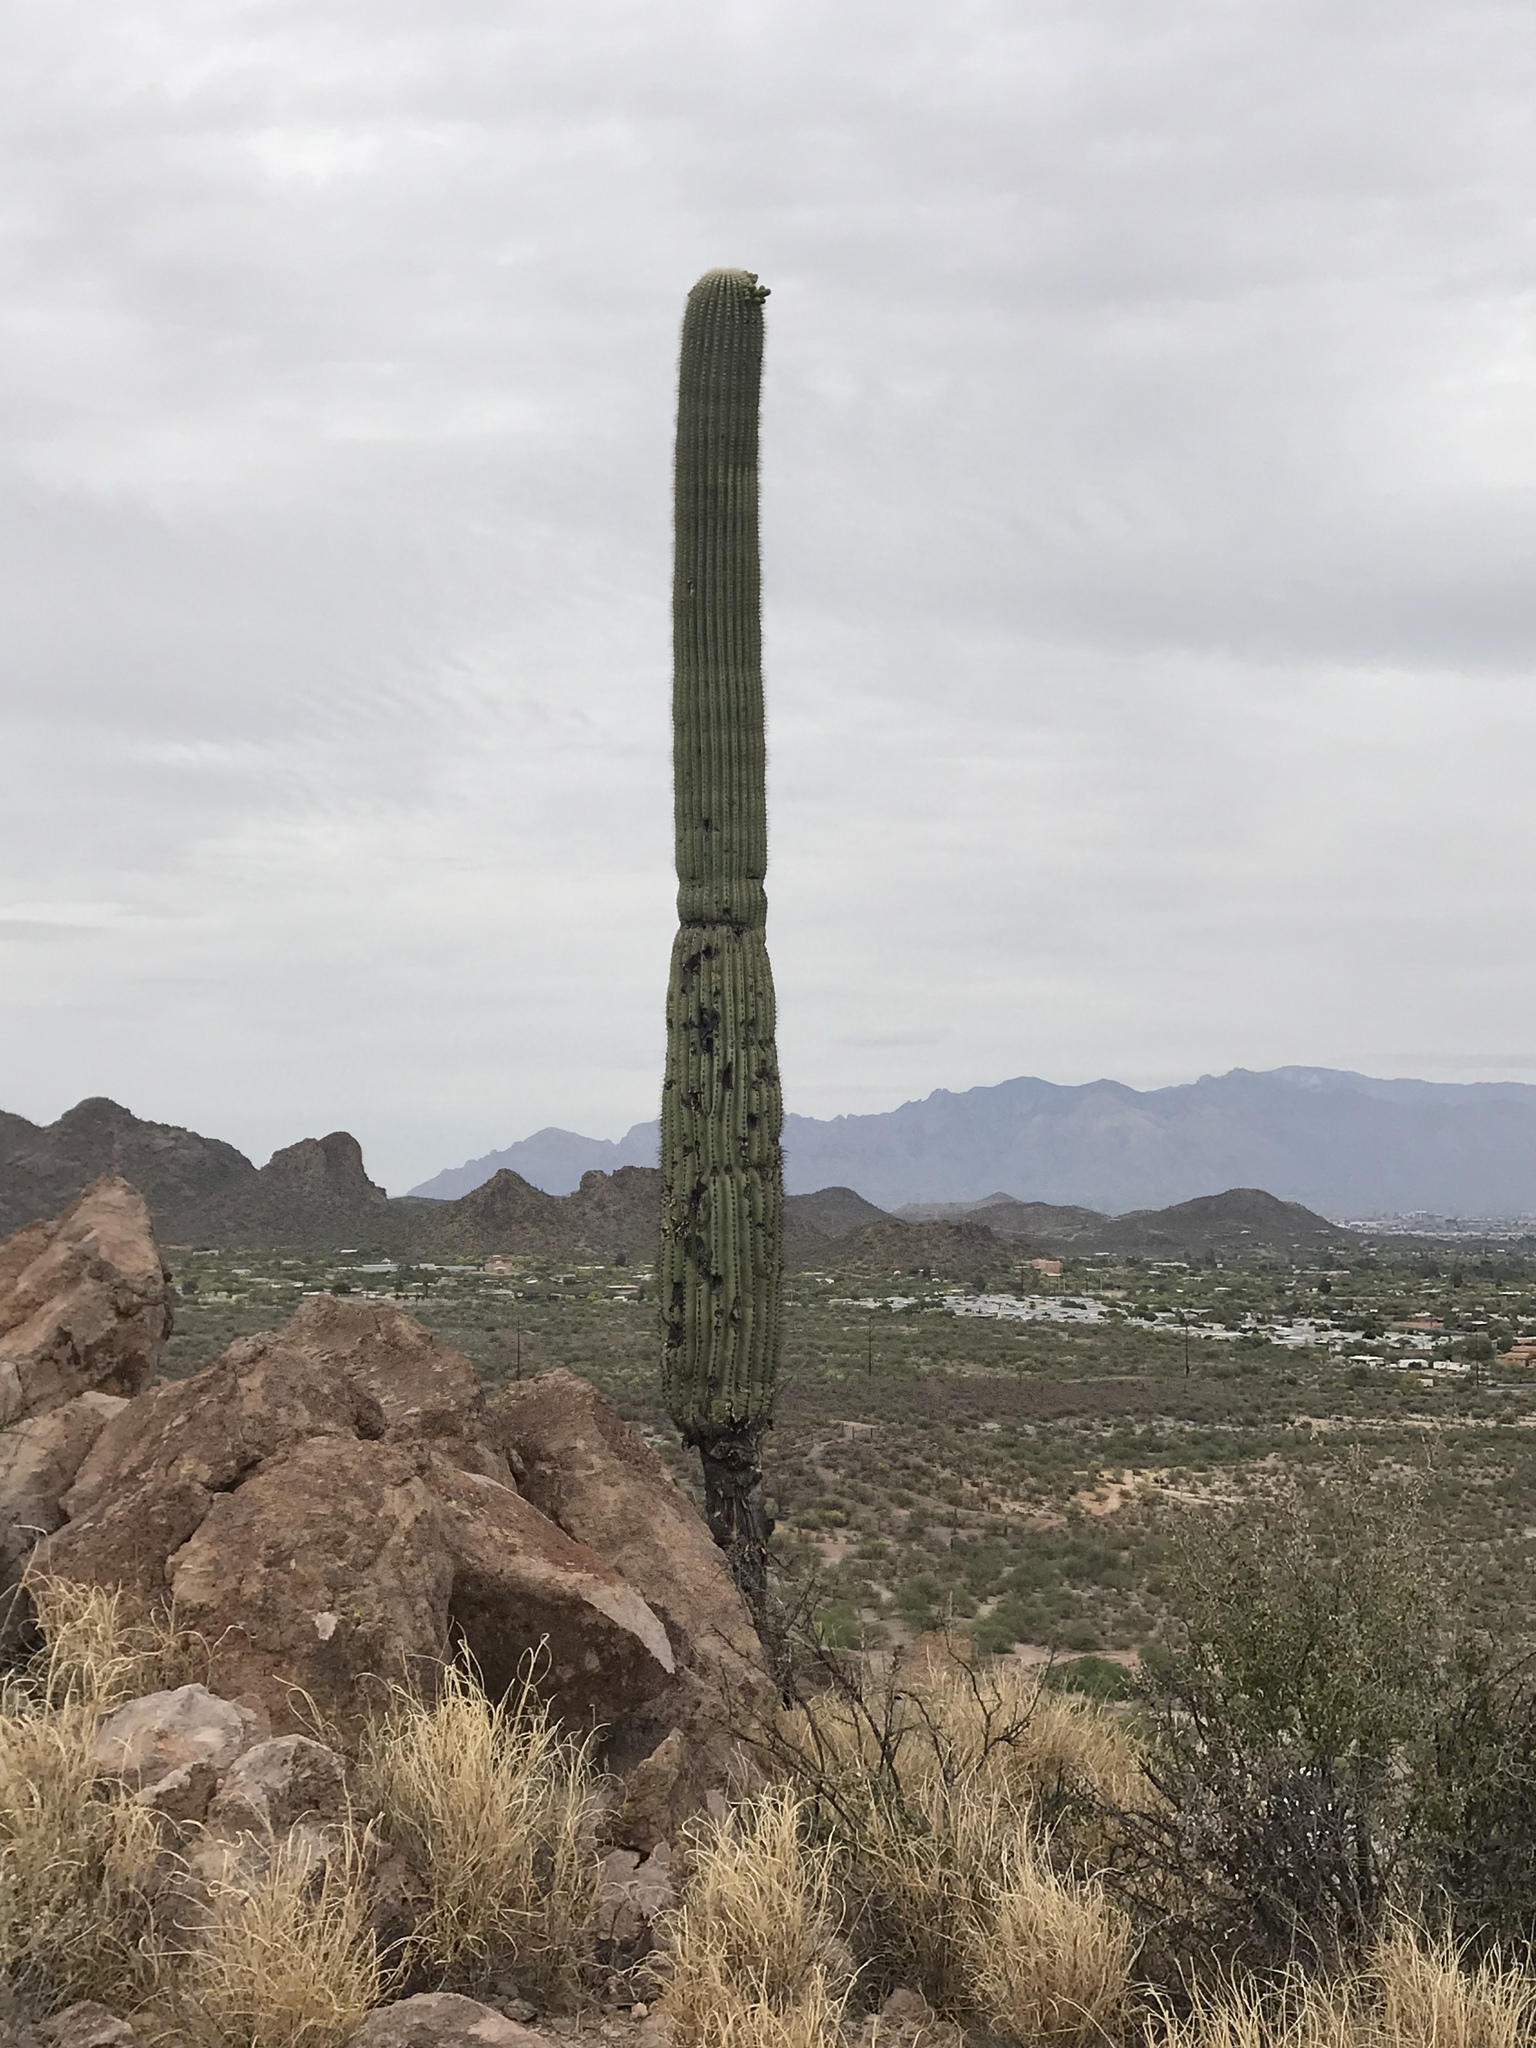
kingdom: Plantae
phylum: Tracheophyta
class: Magnoliopsida
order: Caryophyllales
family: Cactaceae
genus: Carnegiea
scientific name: Carnegiea gigantea
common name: Saguaro
